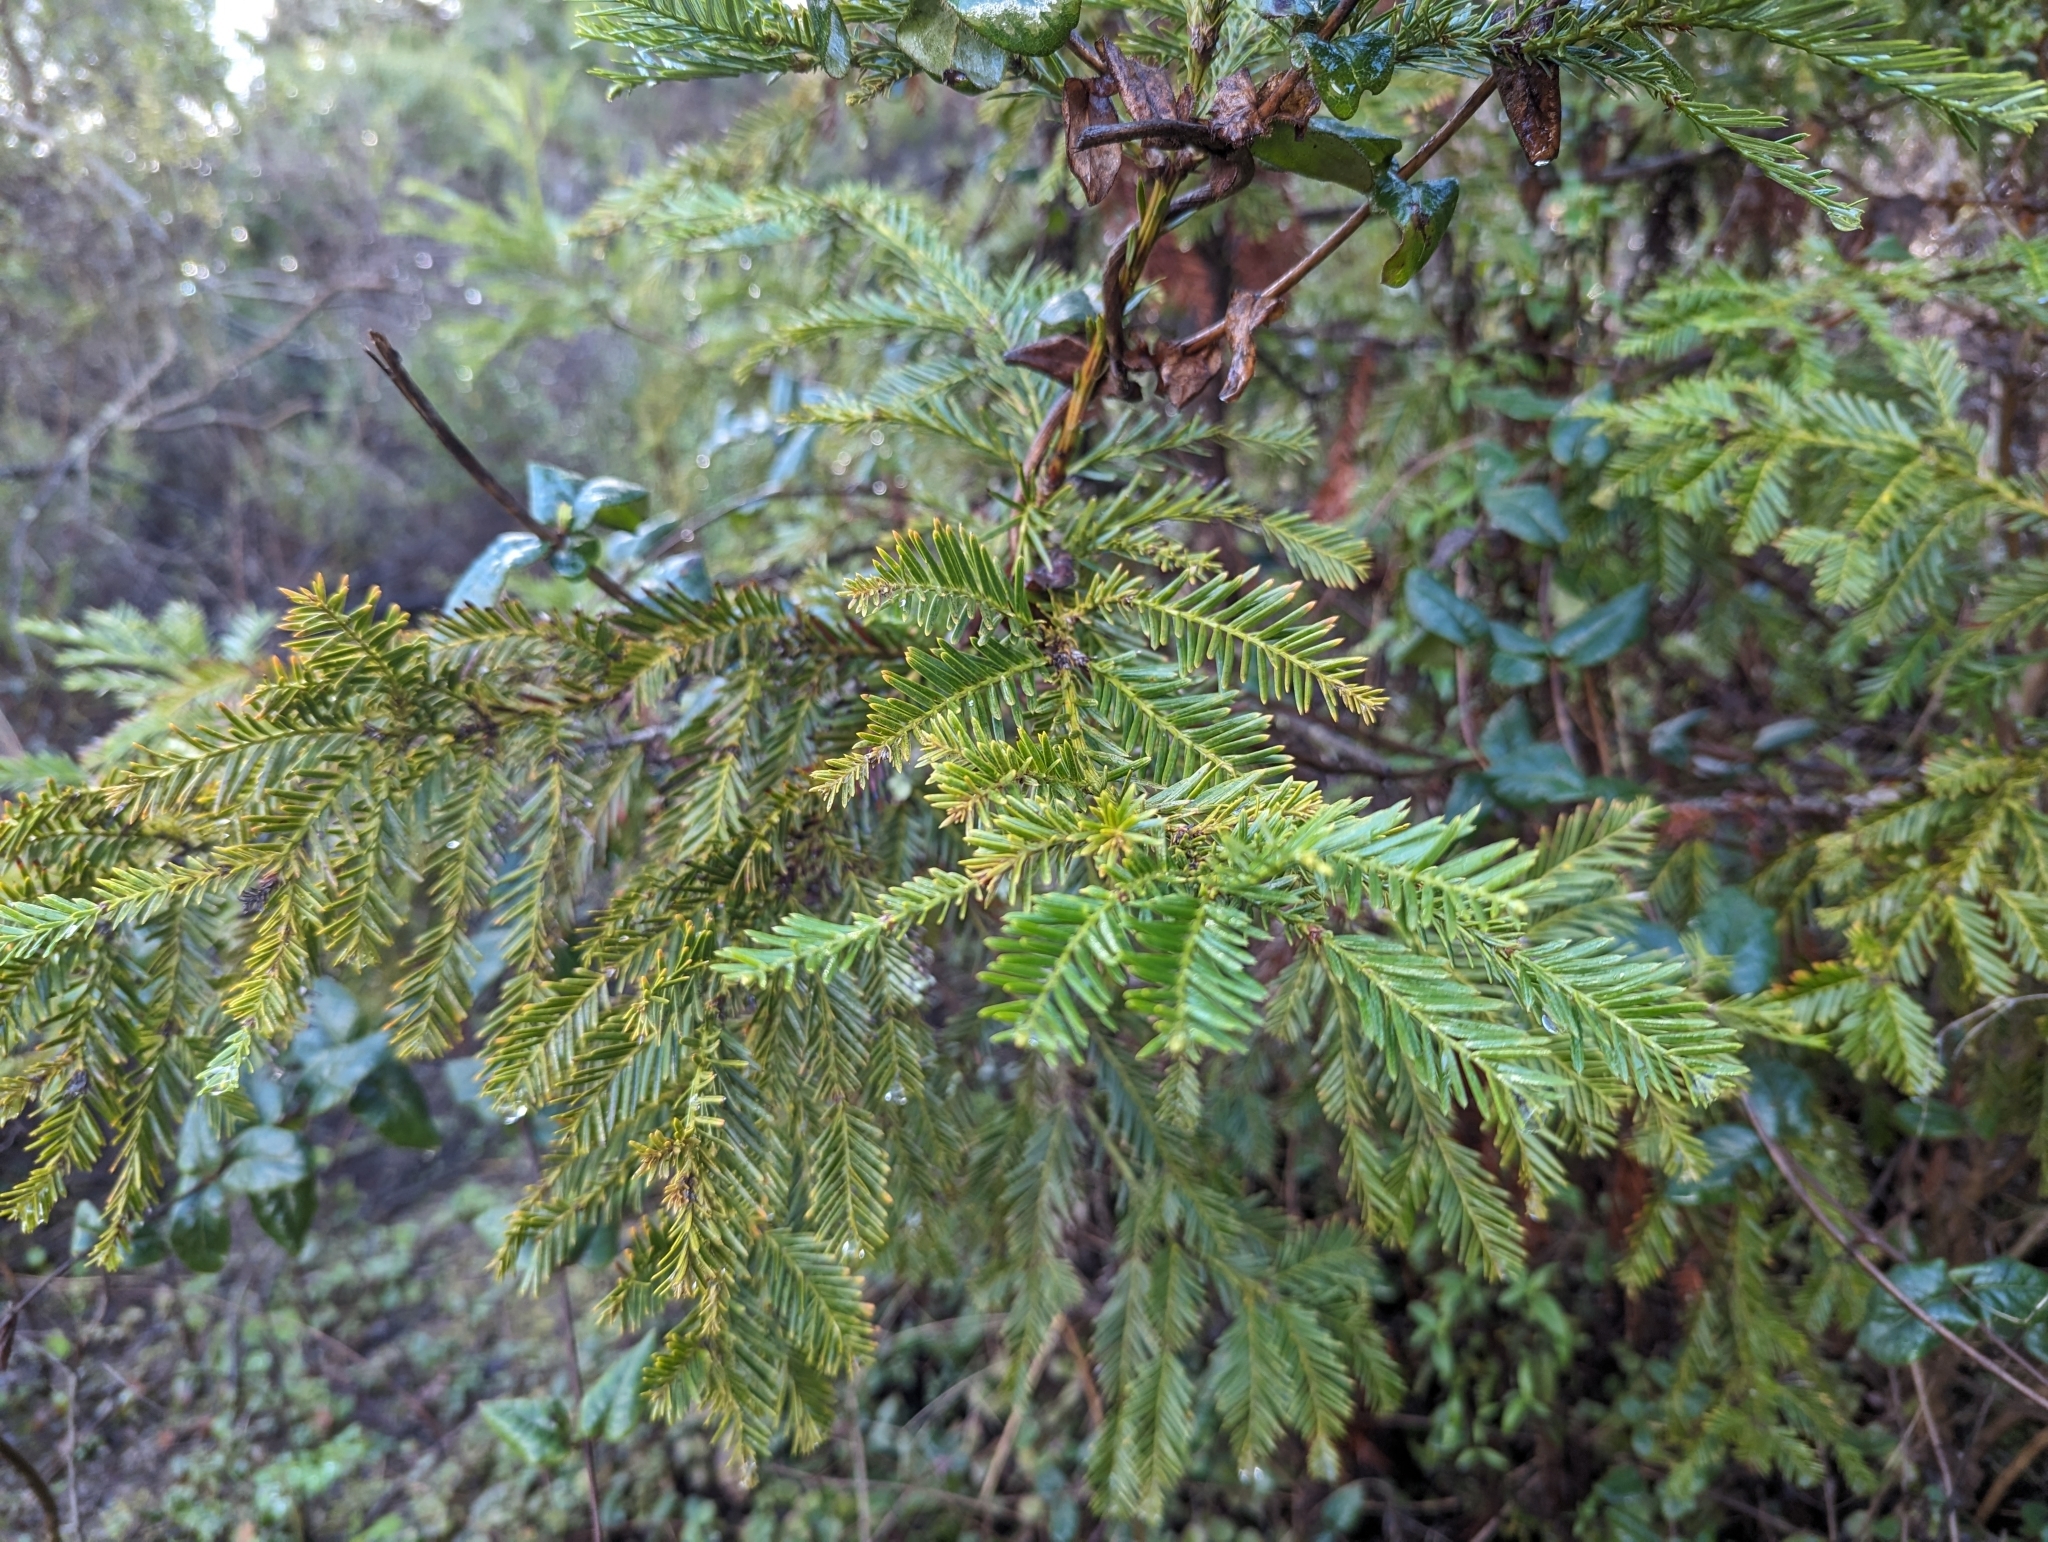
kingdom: Plantae
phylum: Tracheophyta
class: Pinopsida
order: Pinales
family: Cupressaceae
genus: Sequoia
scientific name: Sequoia sempervirens
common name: Coast redwood
